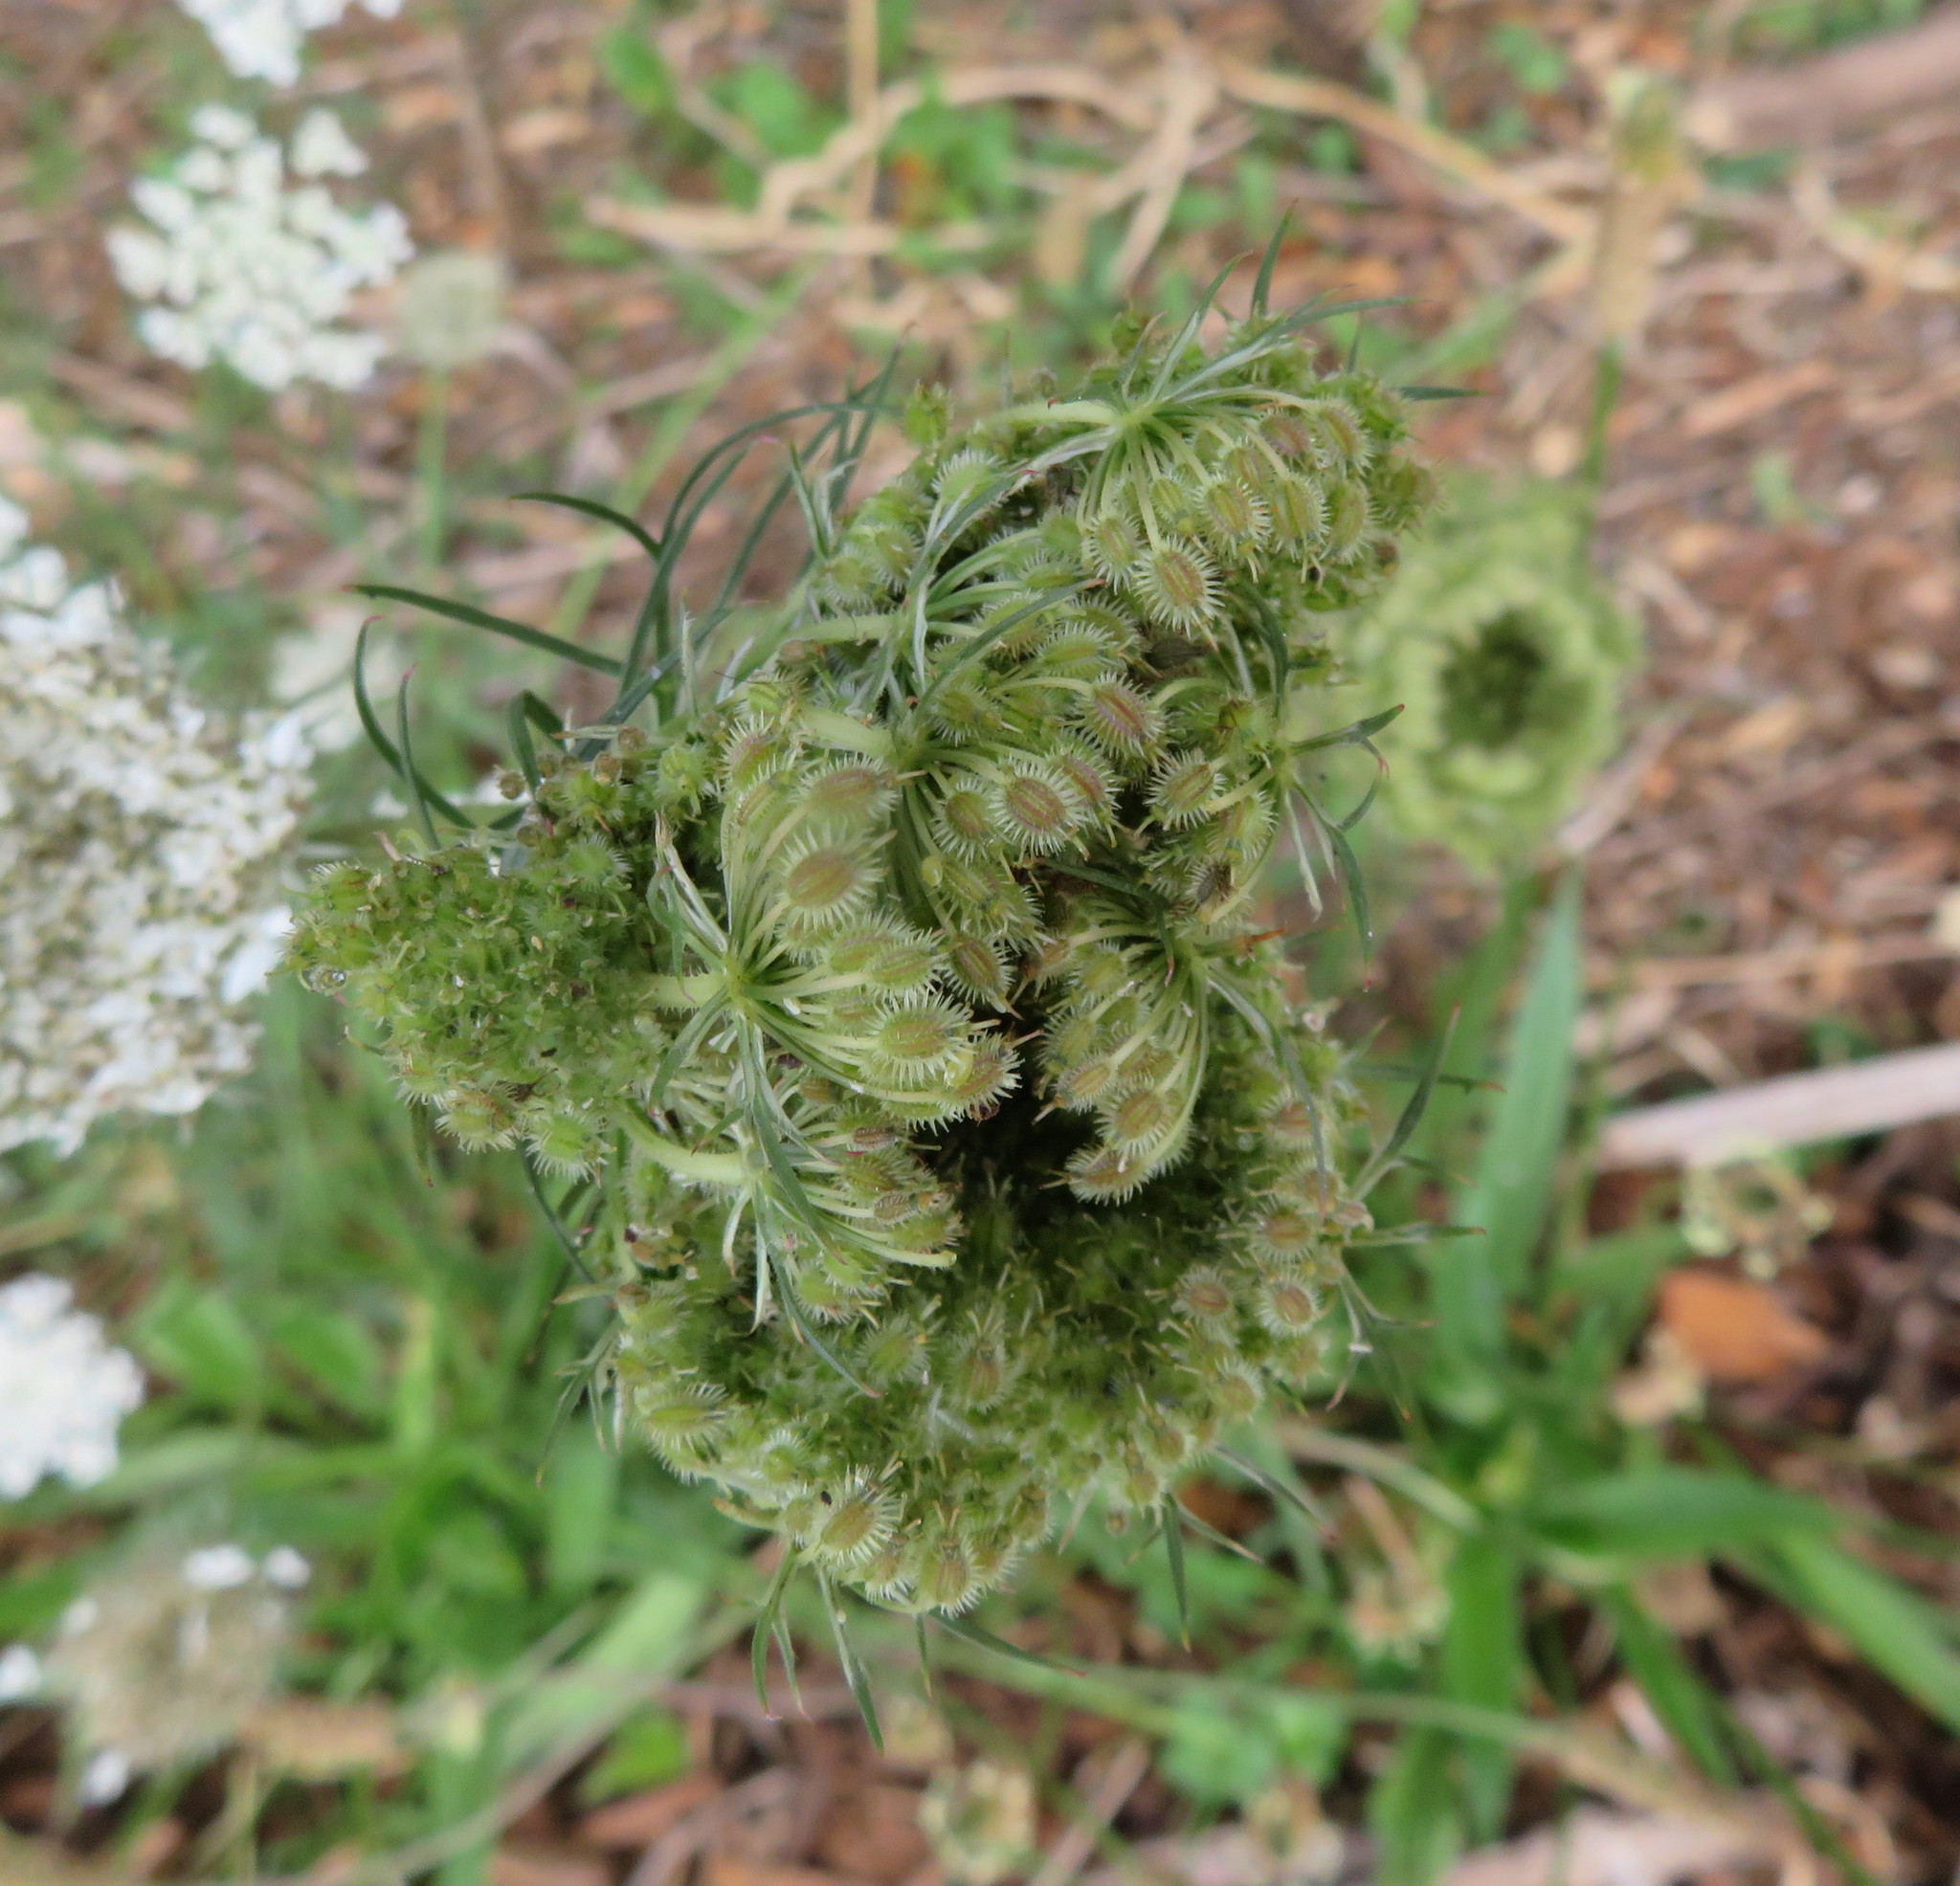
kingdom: Plantae
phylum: Tracheophyta
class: Magnoliopsida
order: Apiales
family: Apiaceae
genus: Daucus
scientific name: Daucus carota
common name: Wild carrot
